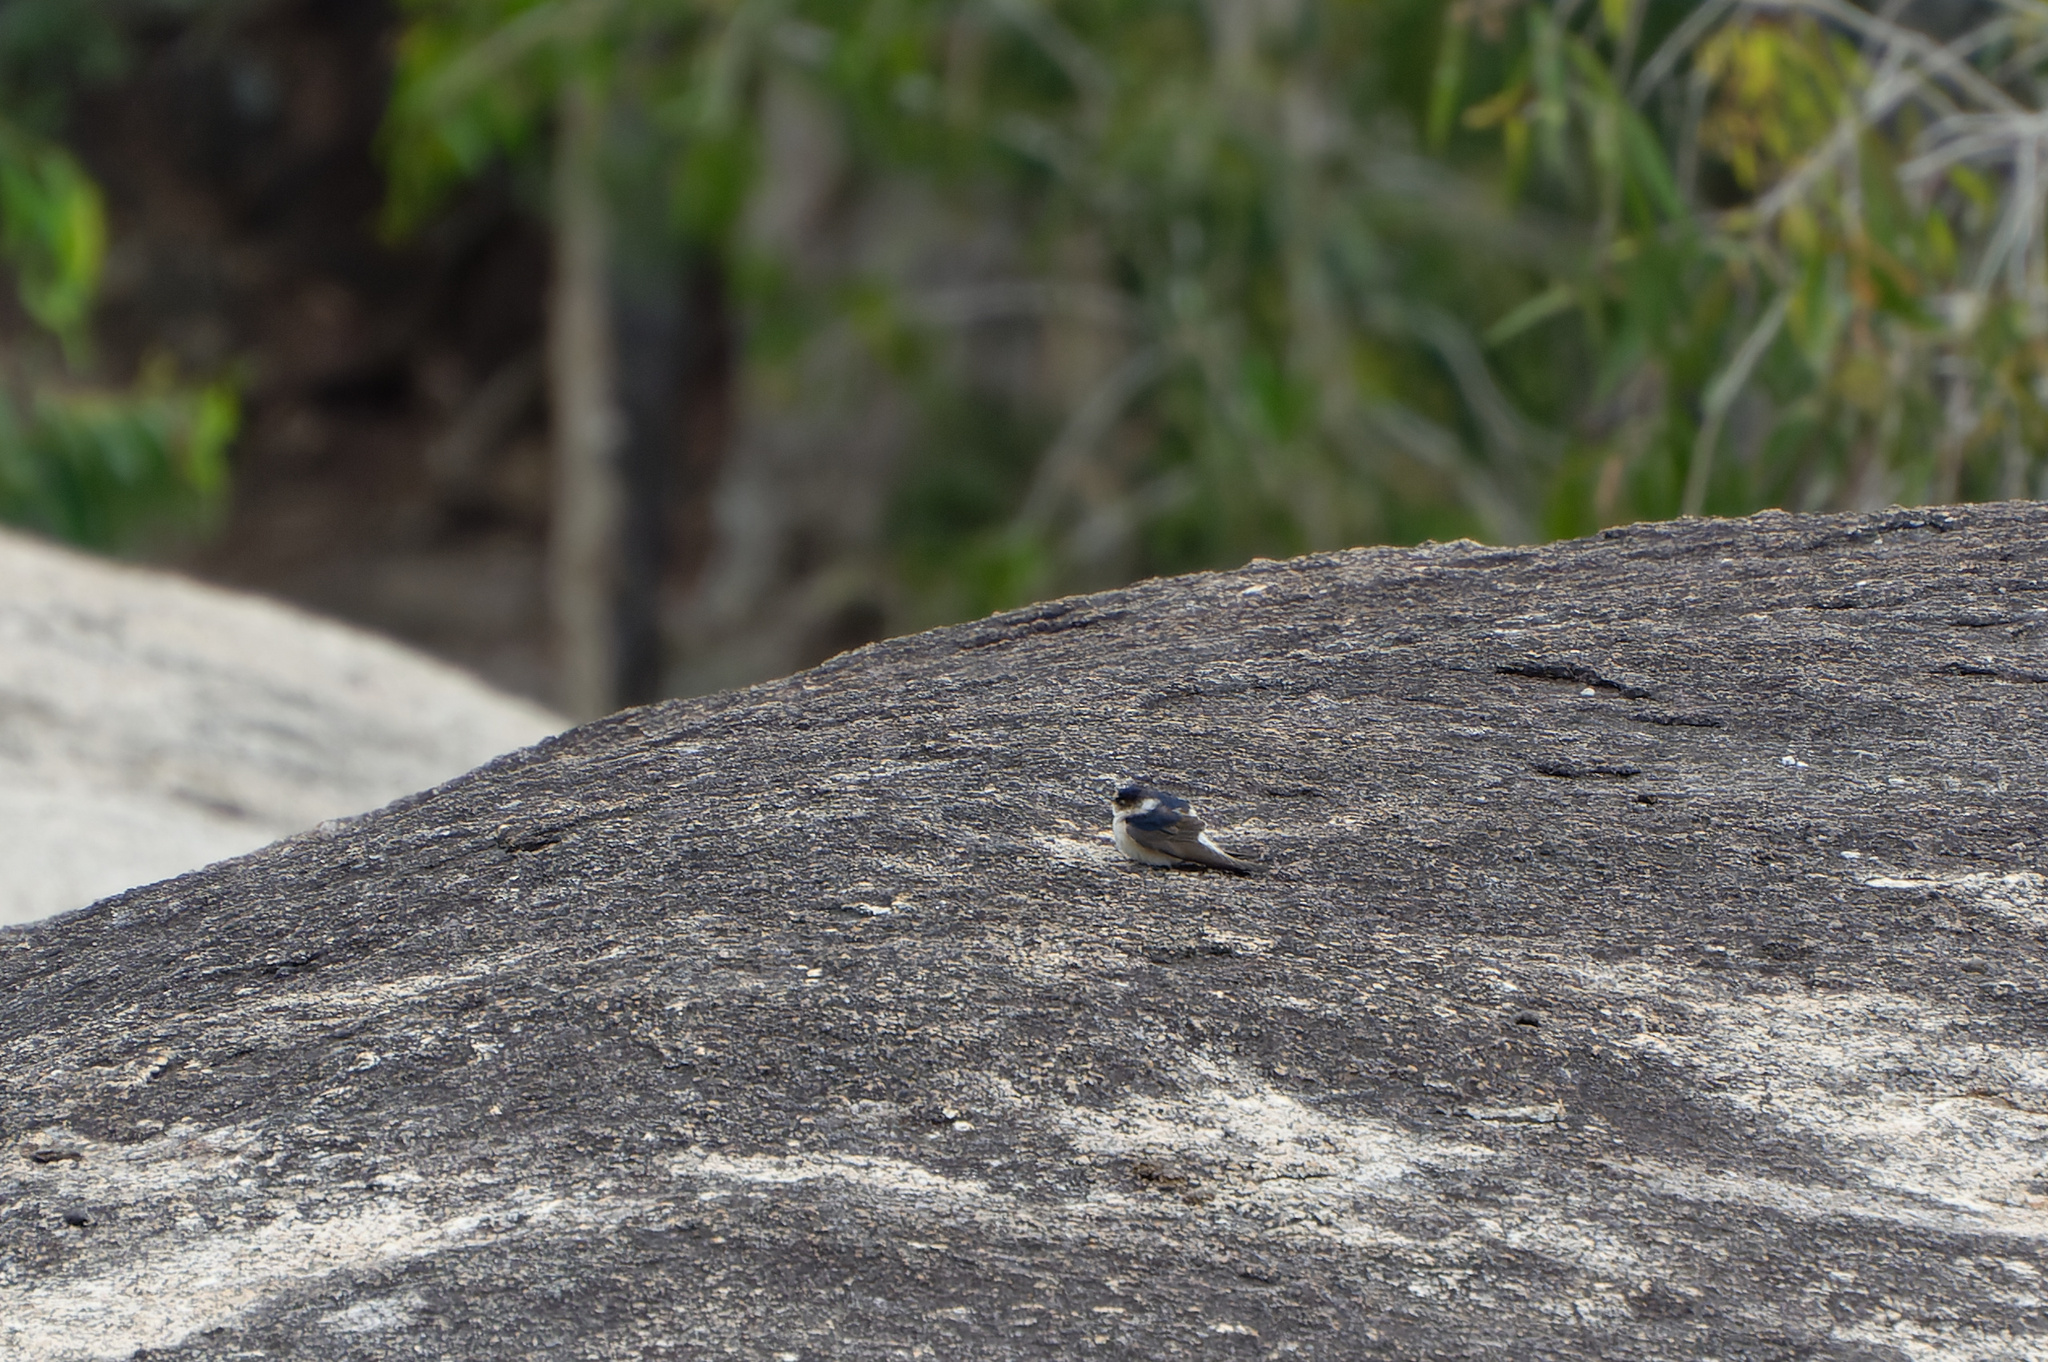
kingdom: Animalia
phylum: Chordata
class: Aves
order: Passeriformes
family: Hirundinidae
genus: Petrochelidon
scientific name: Petrochelidon nigricans
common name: Tree martin
